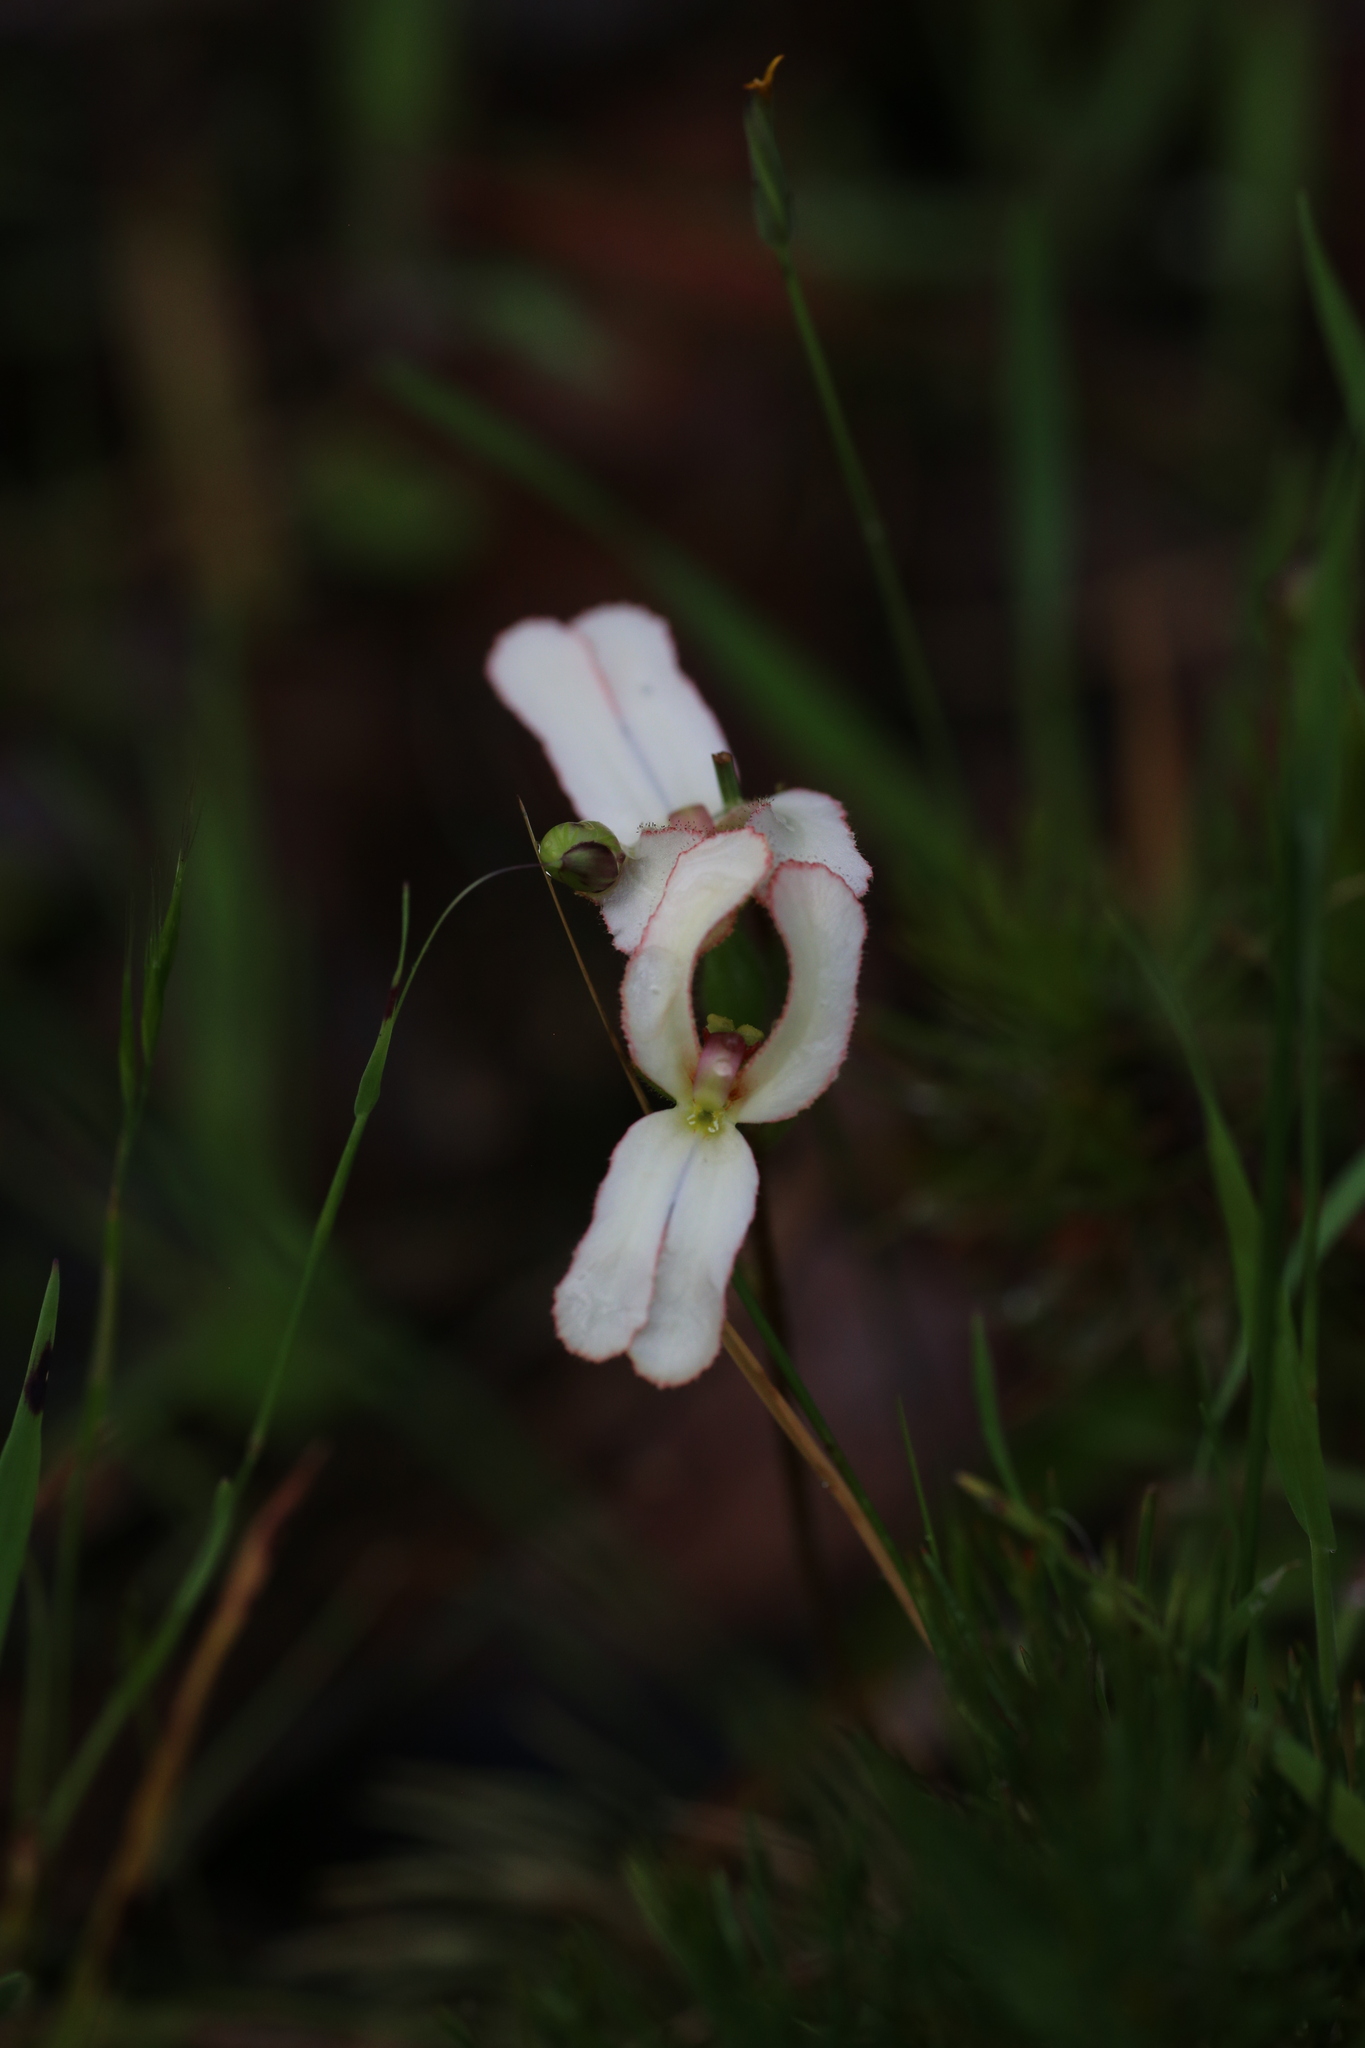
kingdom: Plantae
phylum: Tracheophyta
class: Magnoliopsida
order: Asterales
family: Stylidiaceae
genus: Stylidium
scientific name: Stylidium schoenoides
